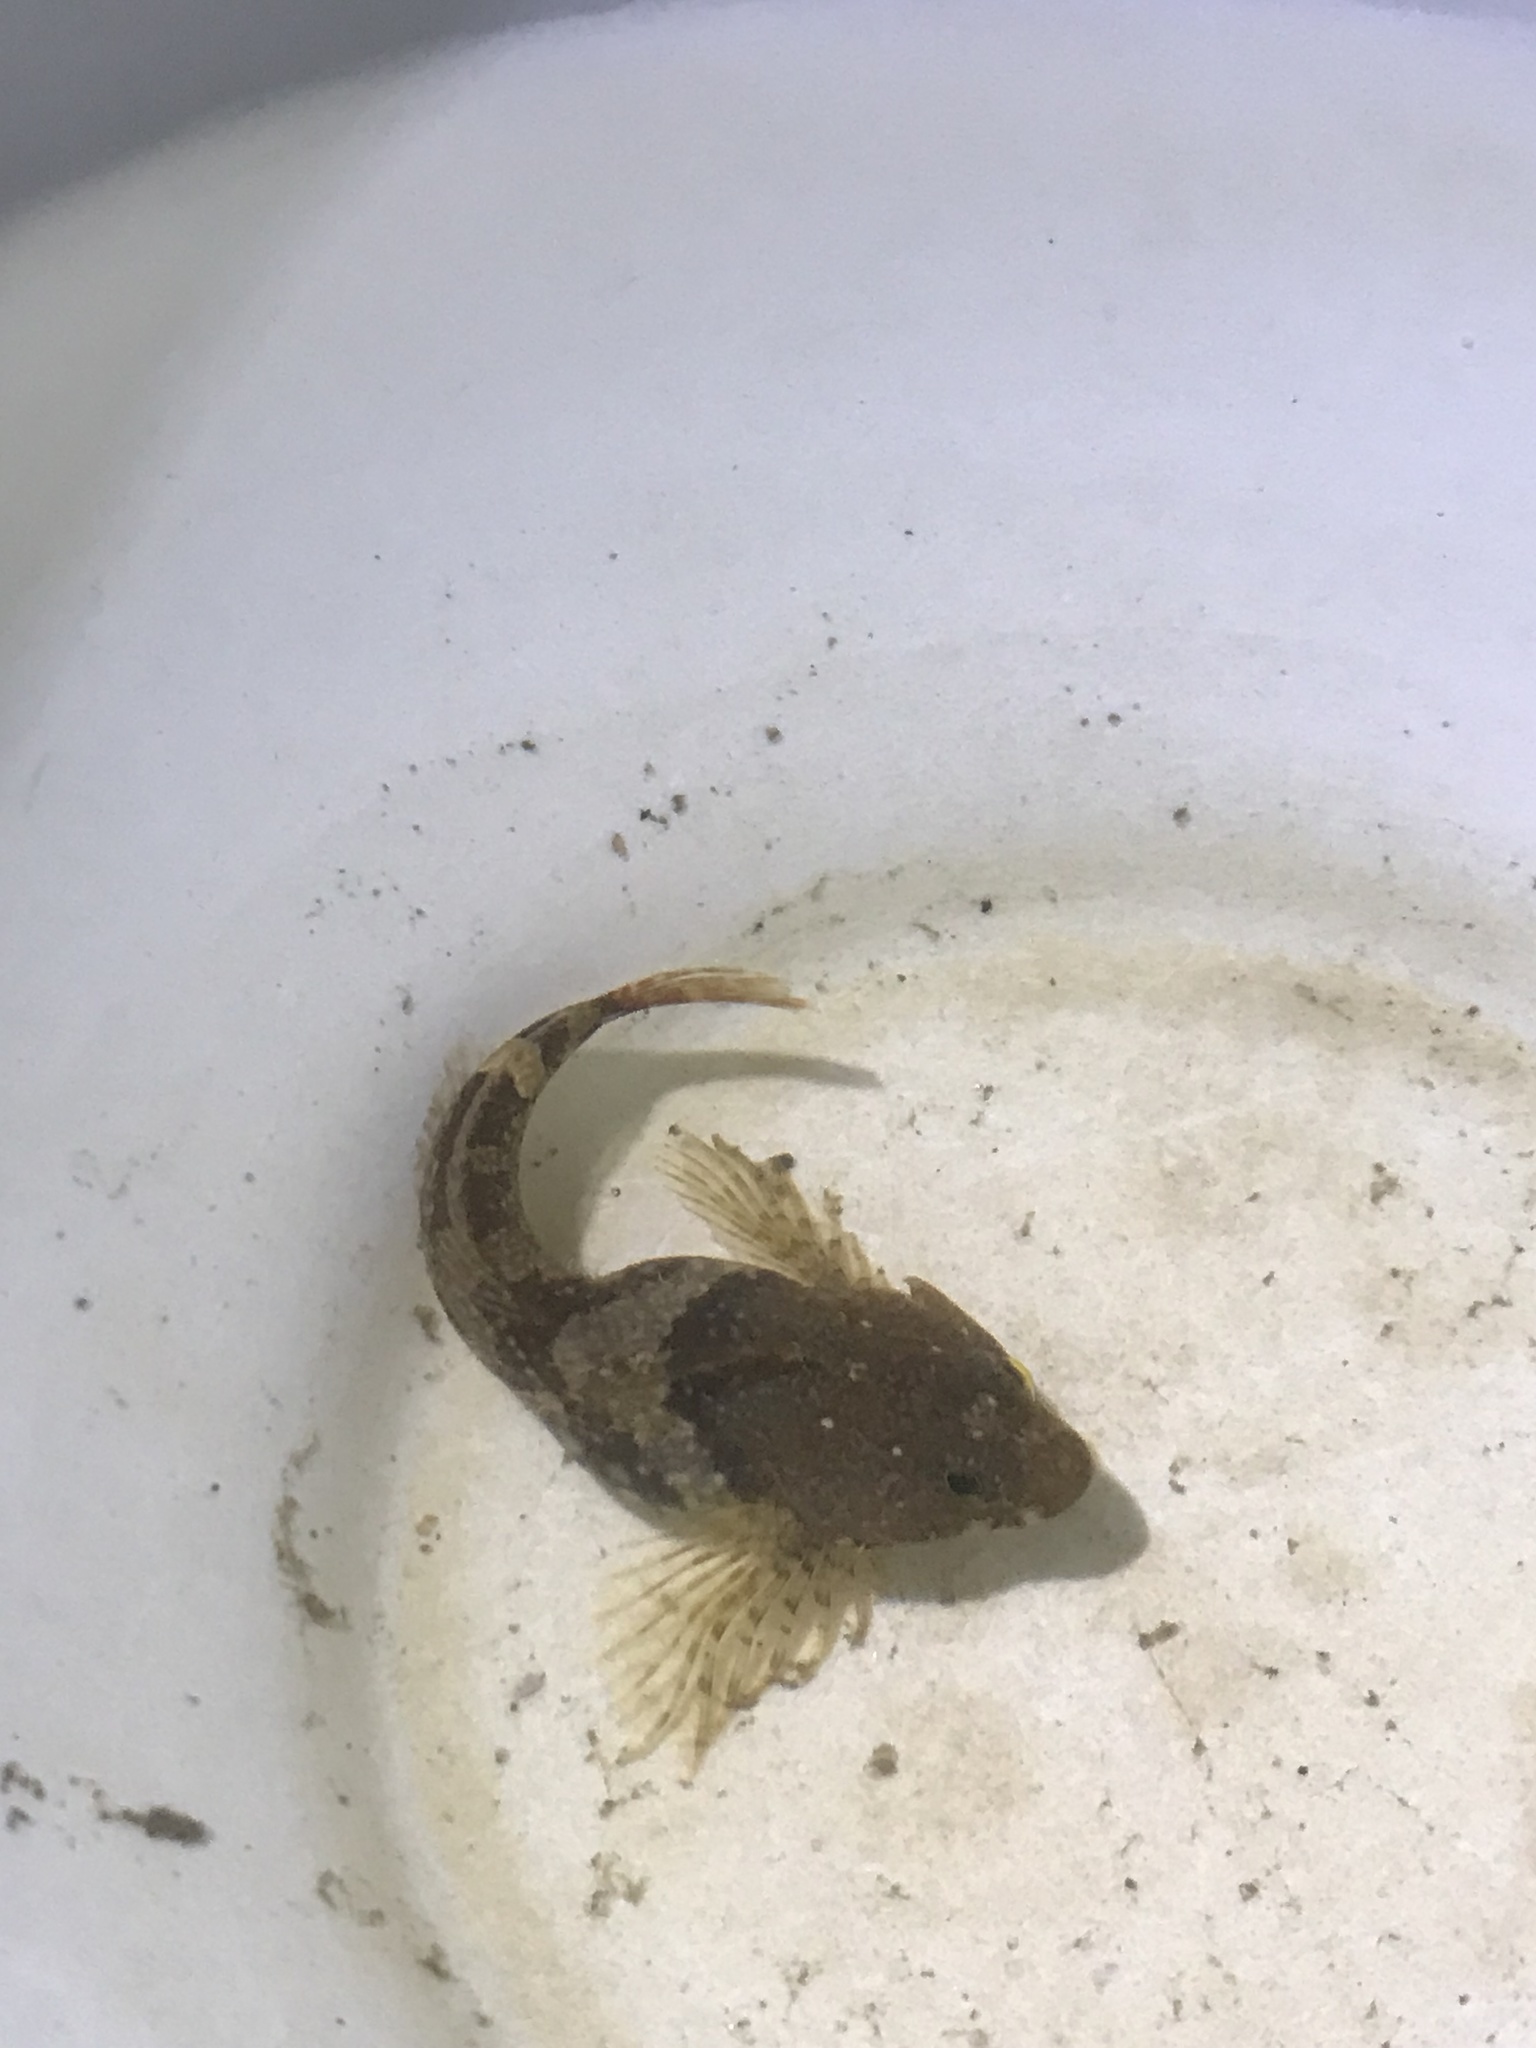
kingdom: Animalia
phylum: Chordata
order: Scorpaeniformes
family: Cottidae
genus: Oligocottus
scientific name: Oligocottus maculosus
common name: Tidepool sculpin
